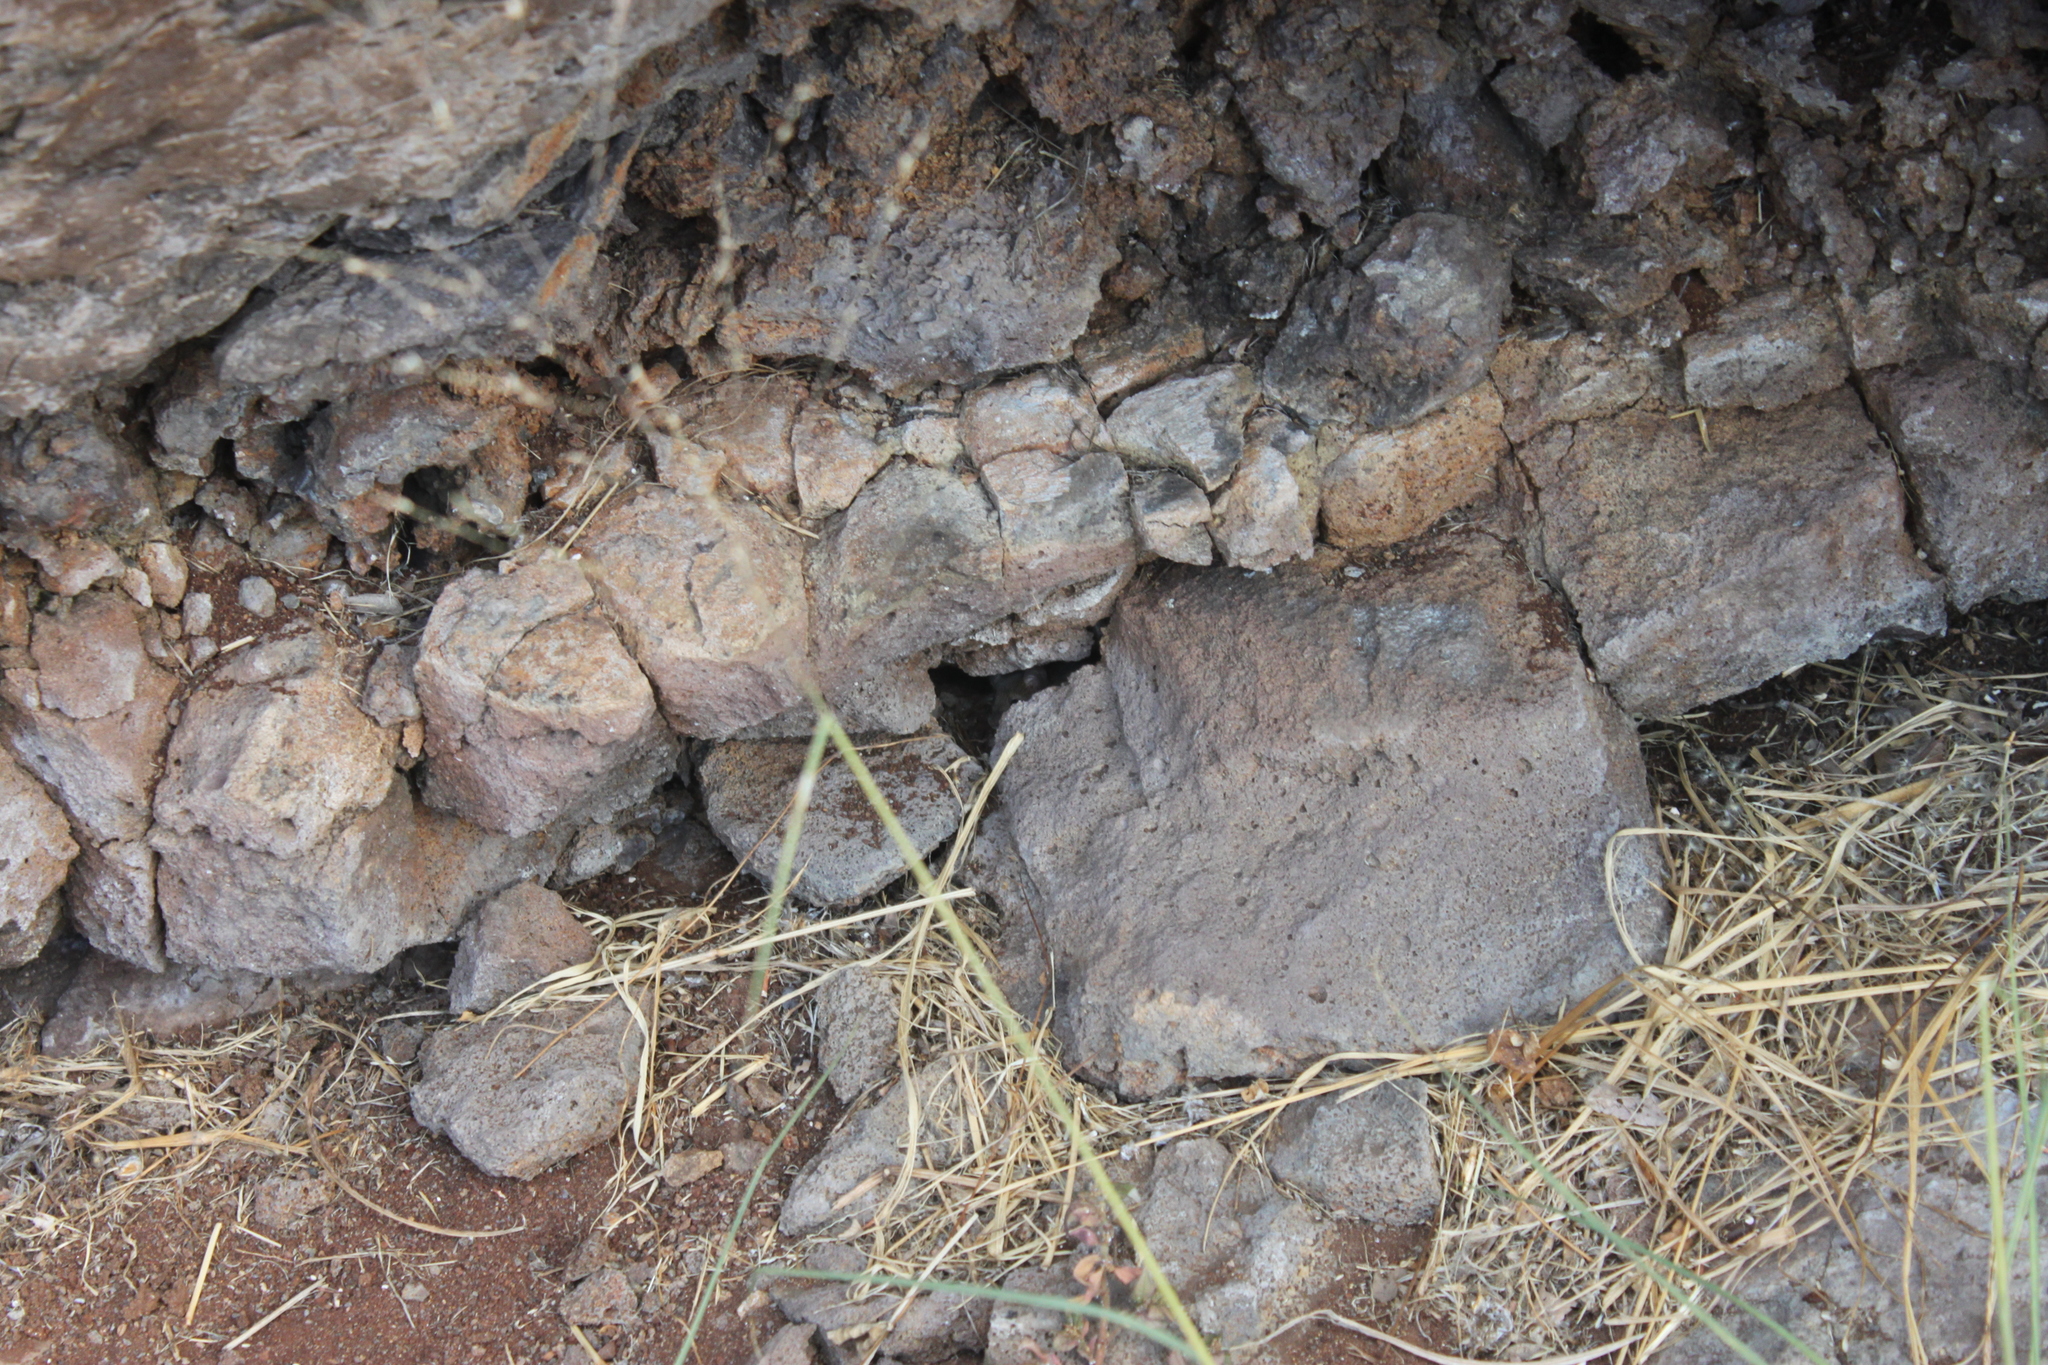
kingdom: Animalia
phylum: Chordata
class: Mammalia
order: Rodentia
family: Muridae
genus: Mus
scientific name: Mus musculus
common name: House mouse
